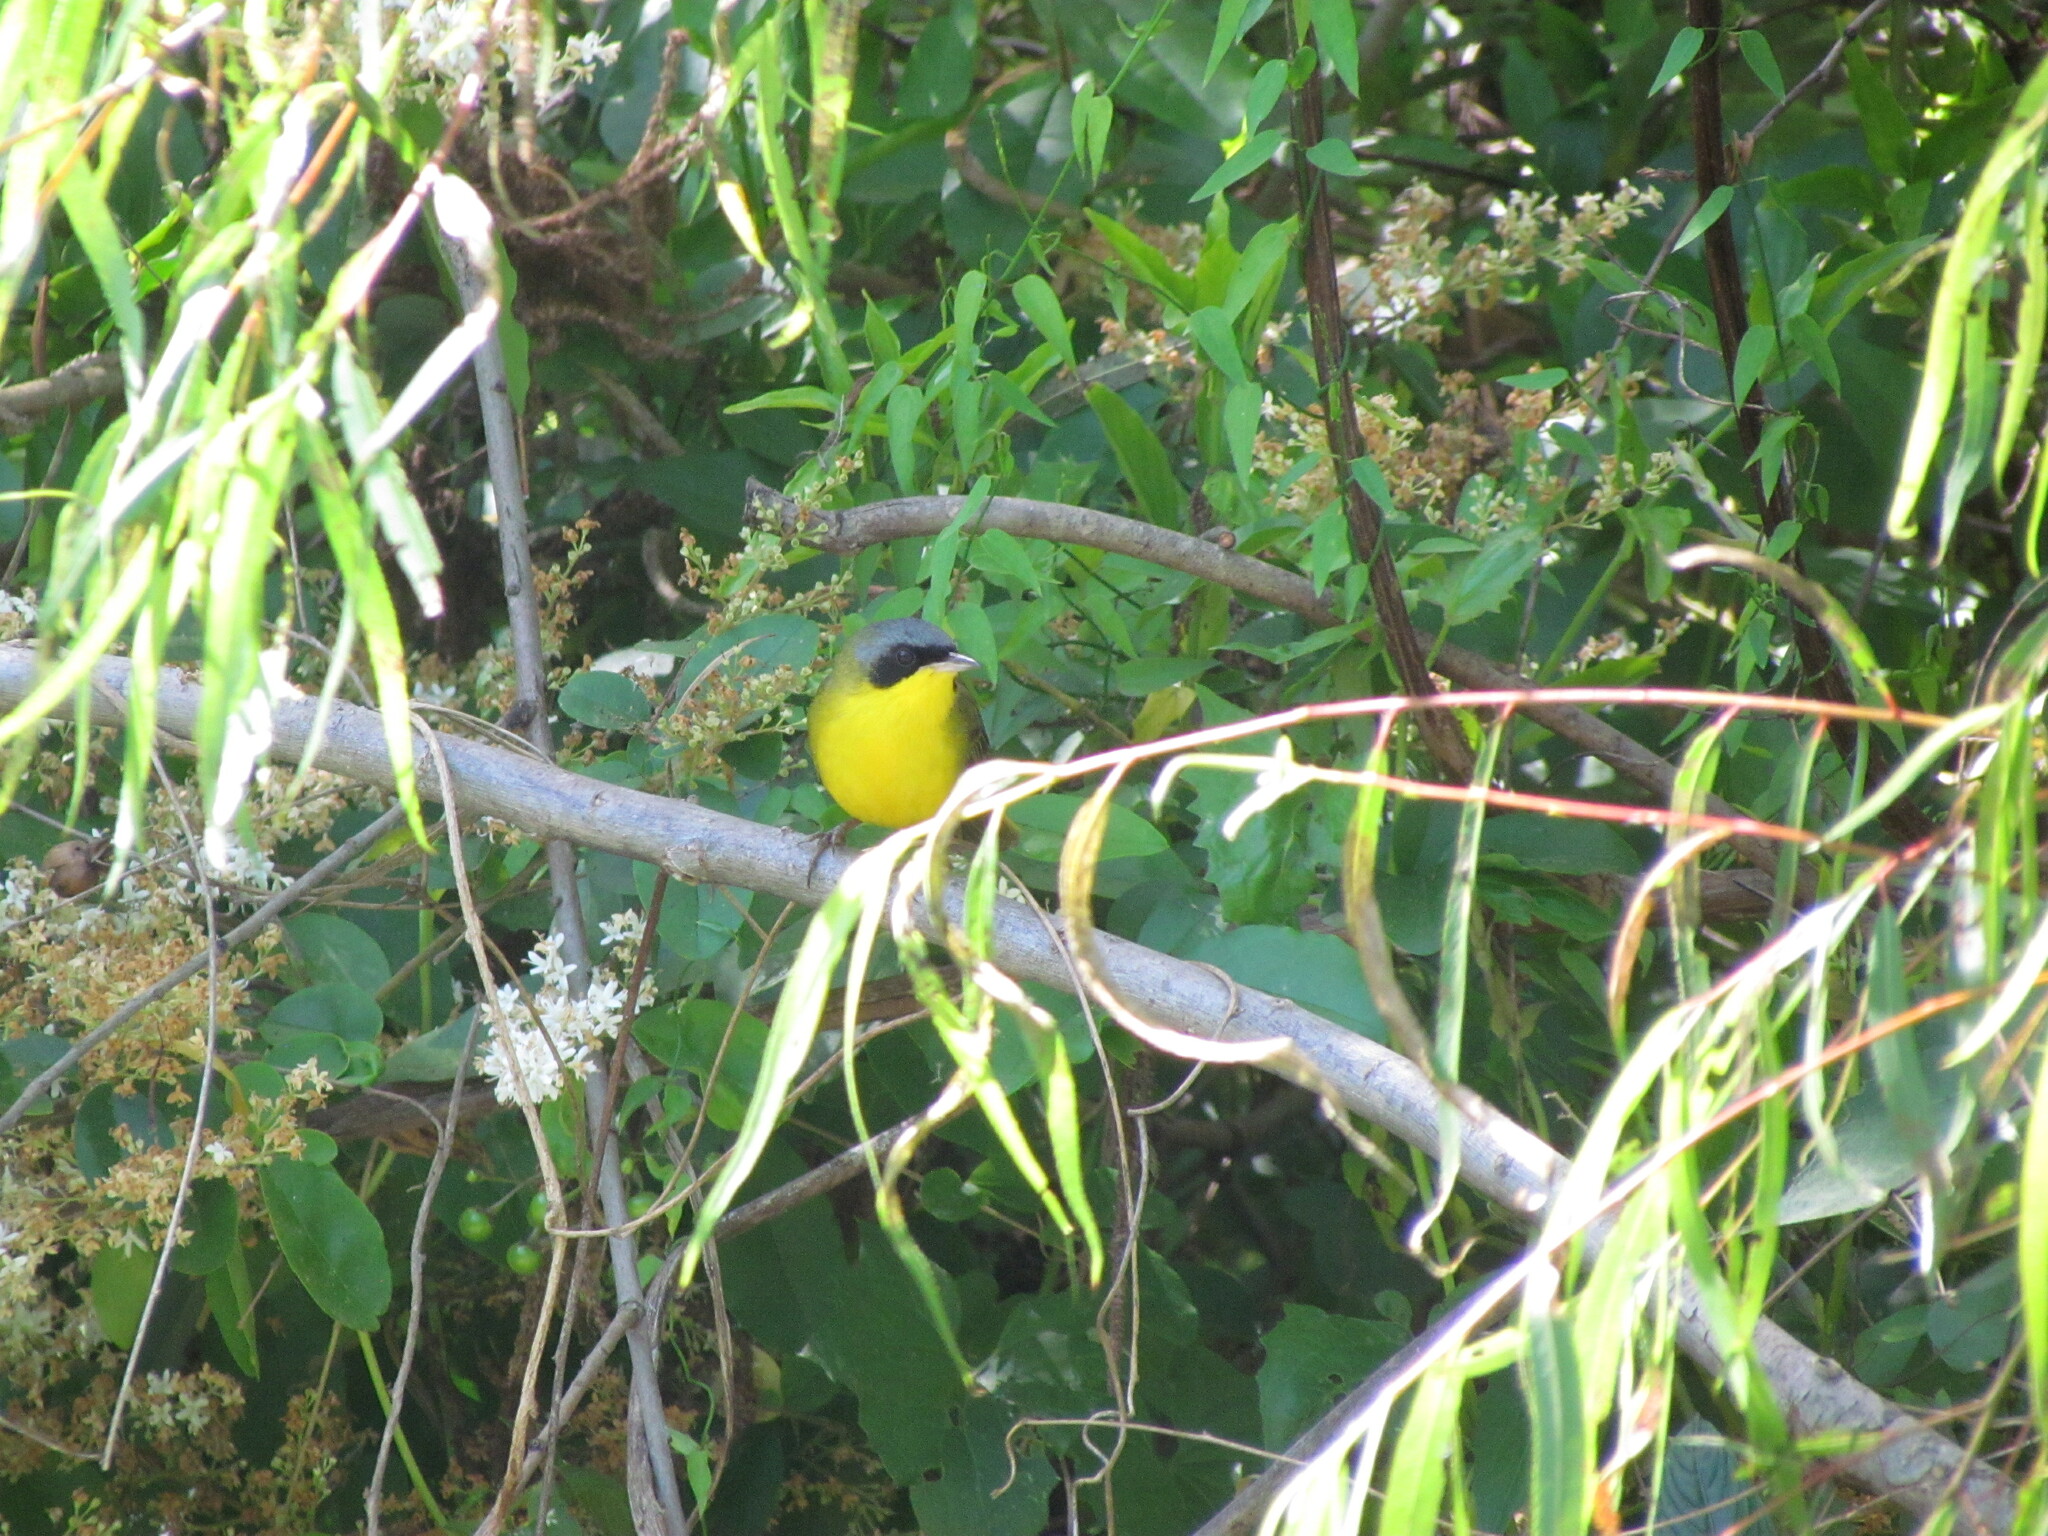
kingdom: Animalia
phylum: Chordata
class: Aves
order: Passeriformes
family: Parulidae
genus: Geothlypis
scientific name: Geothlypis velata
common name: Southern yellowthroat
